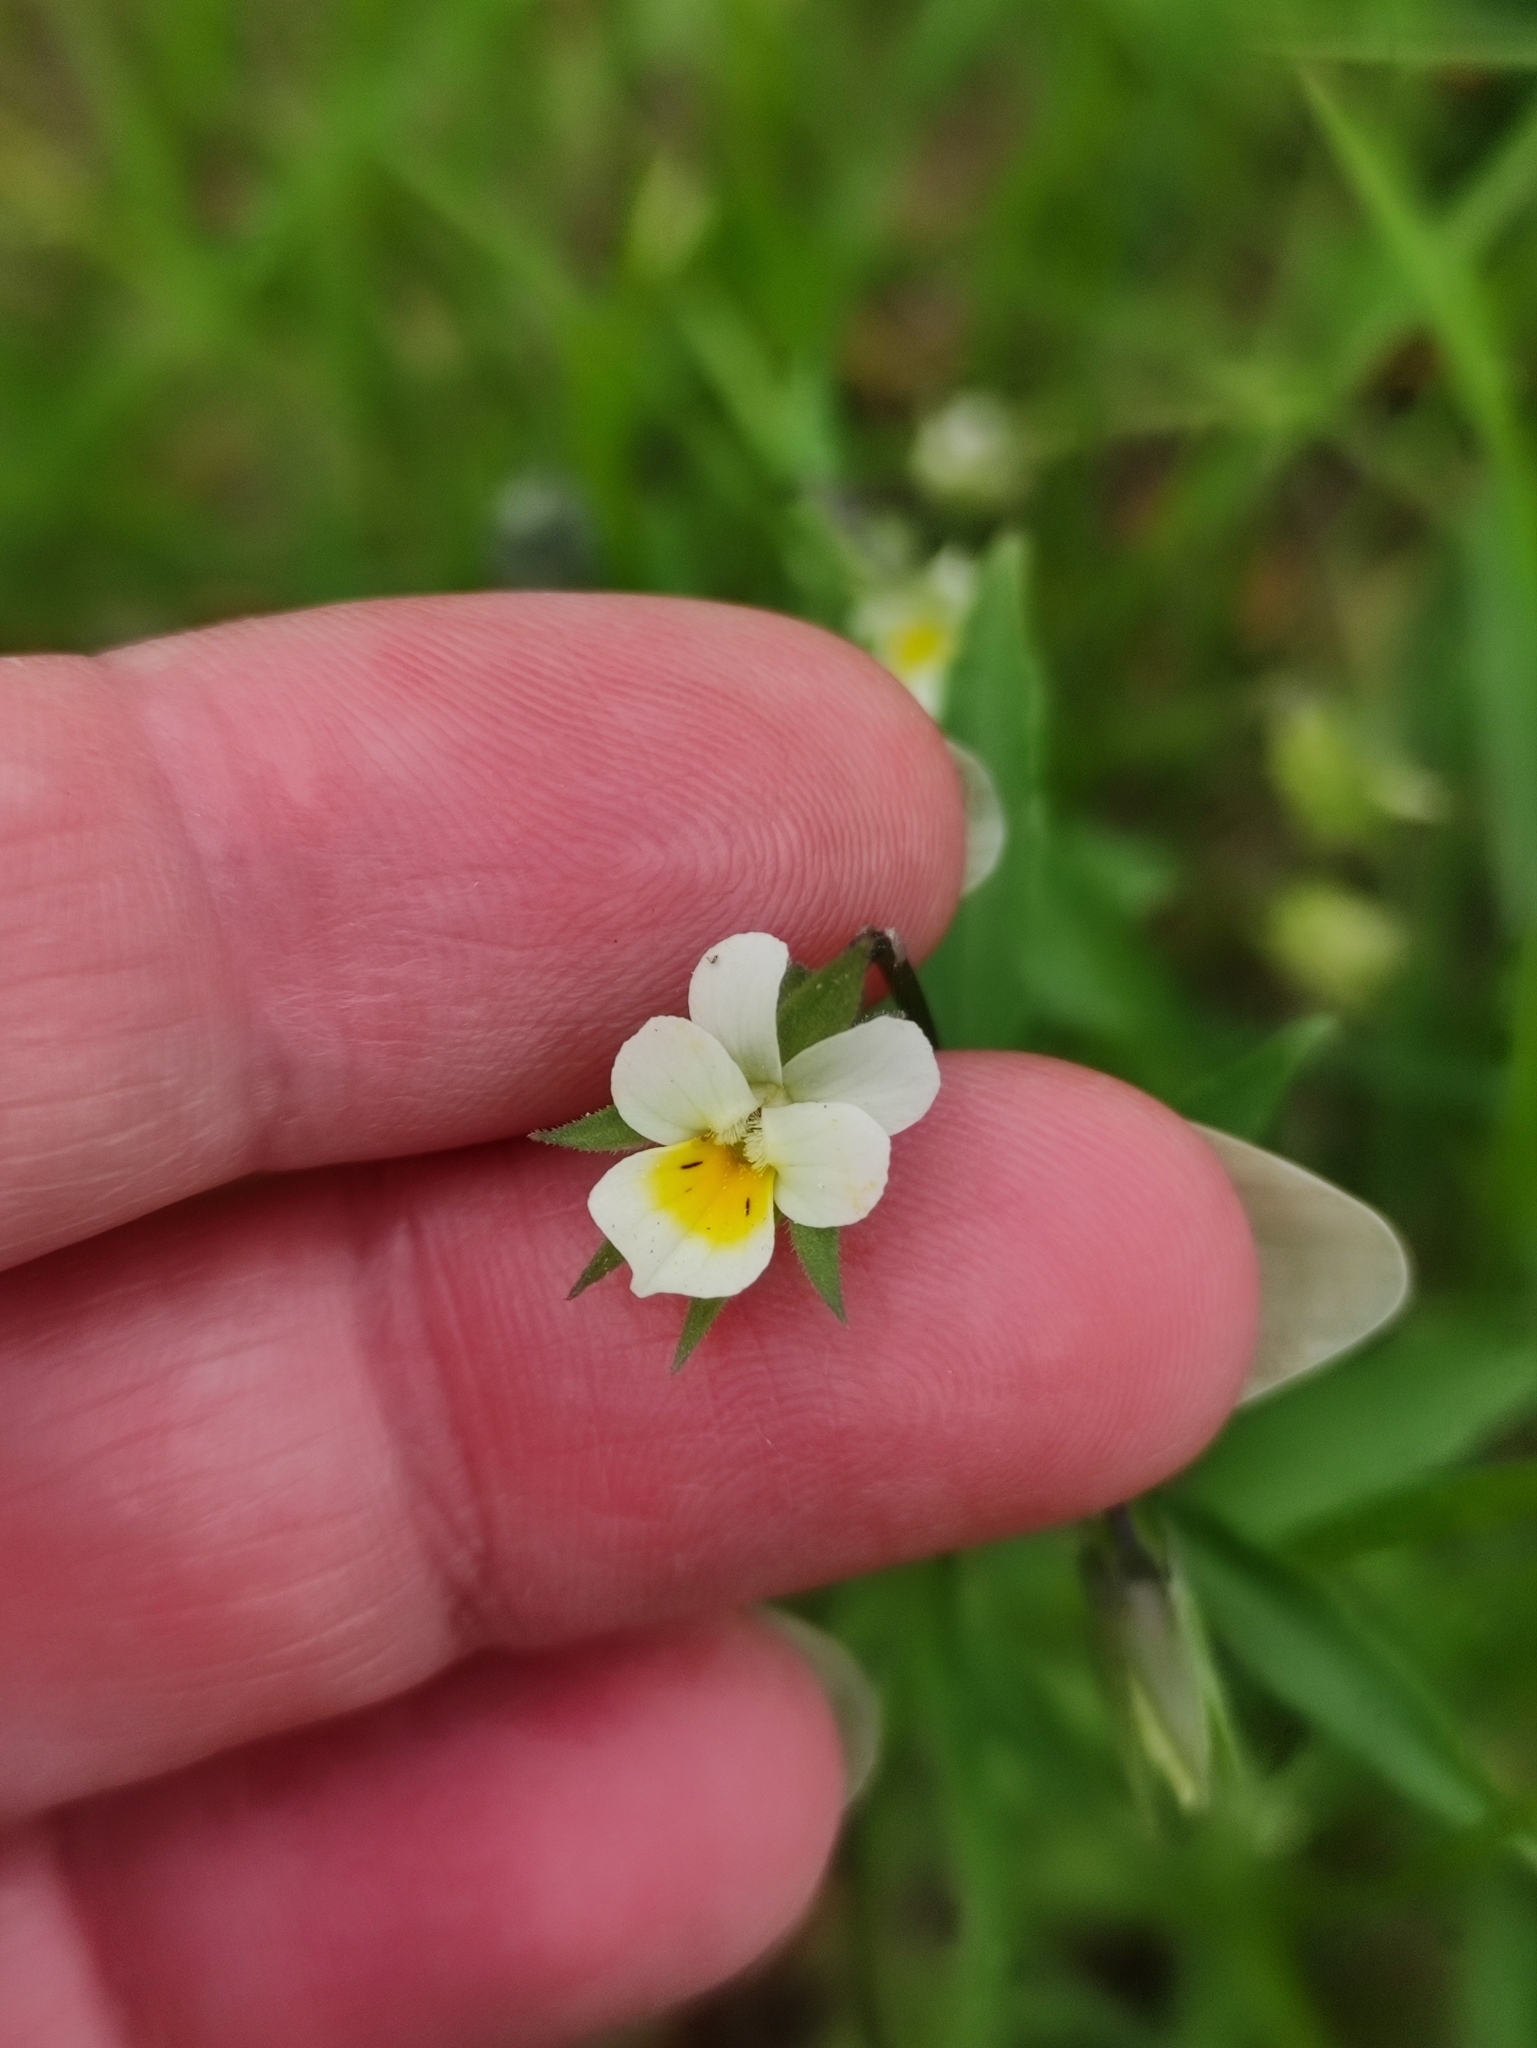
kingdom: Plantae
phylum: Tracheophyta
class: Magnoliopsida
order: Malpighiales
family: Violaceae
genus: Viola
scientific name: Viola arvensis
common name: Field pansy
